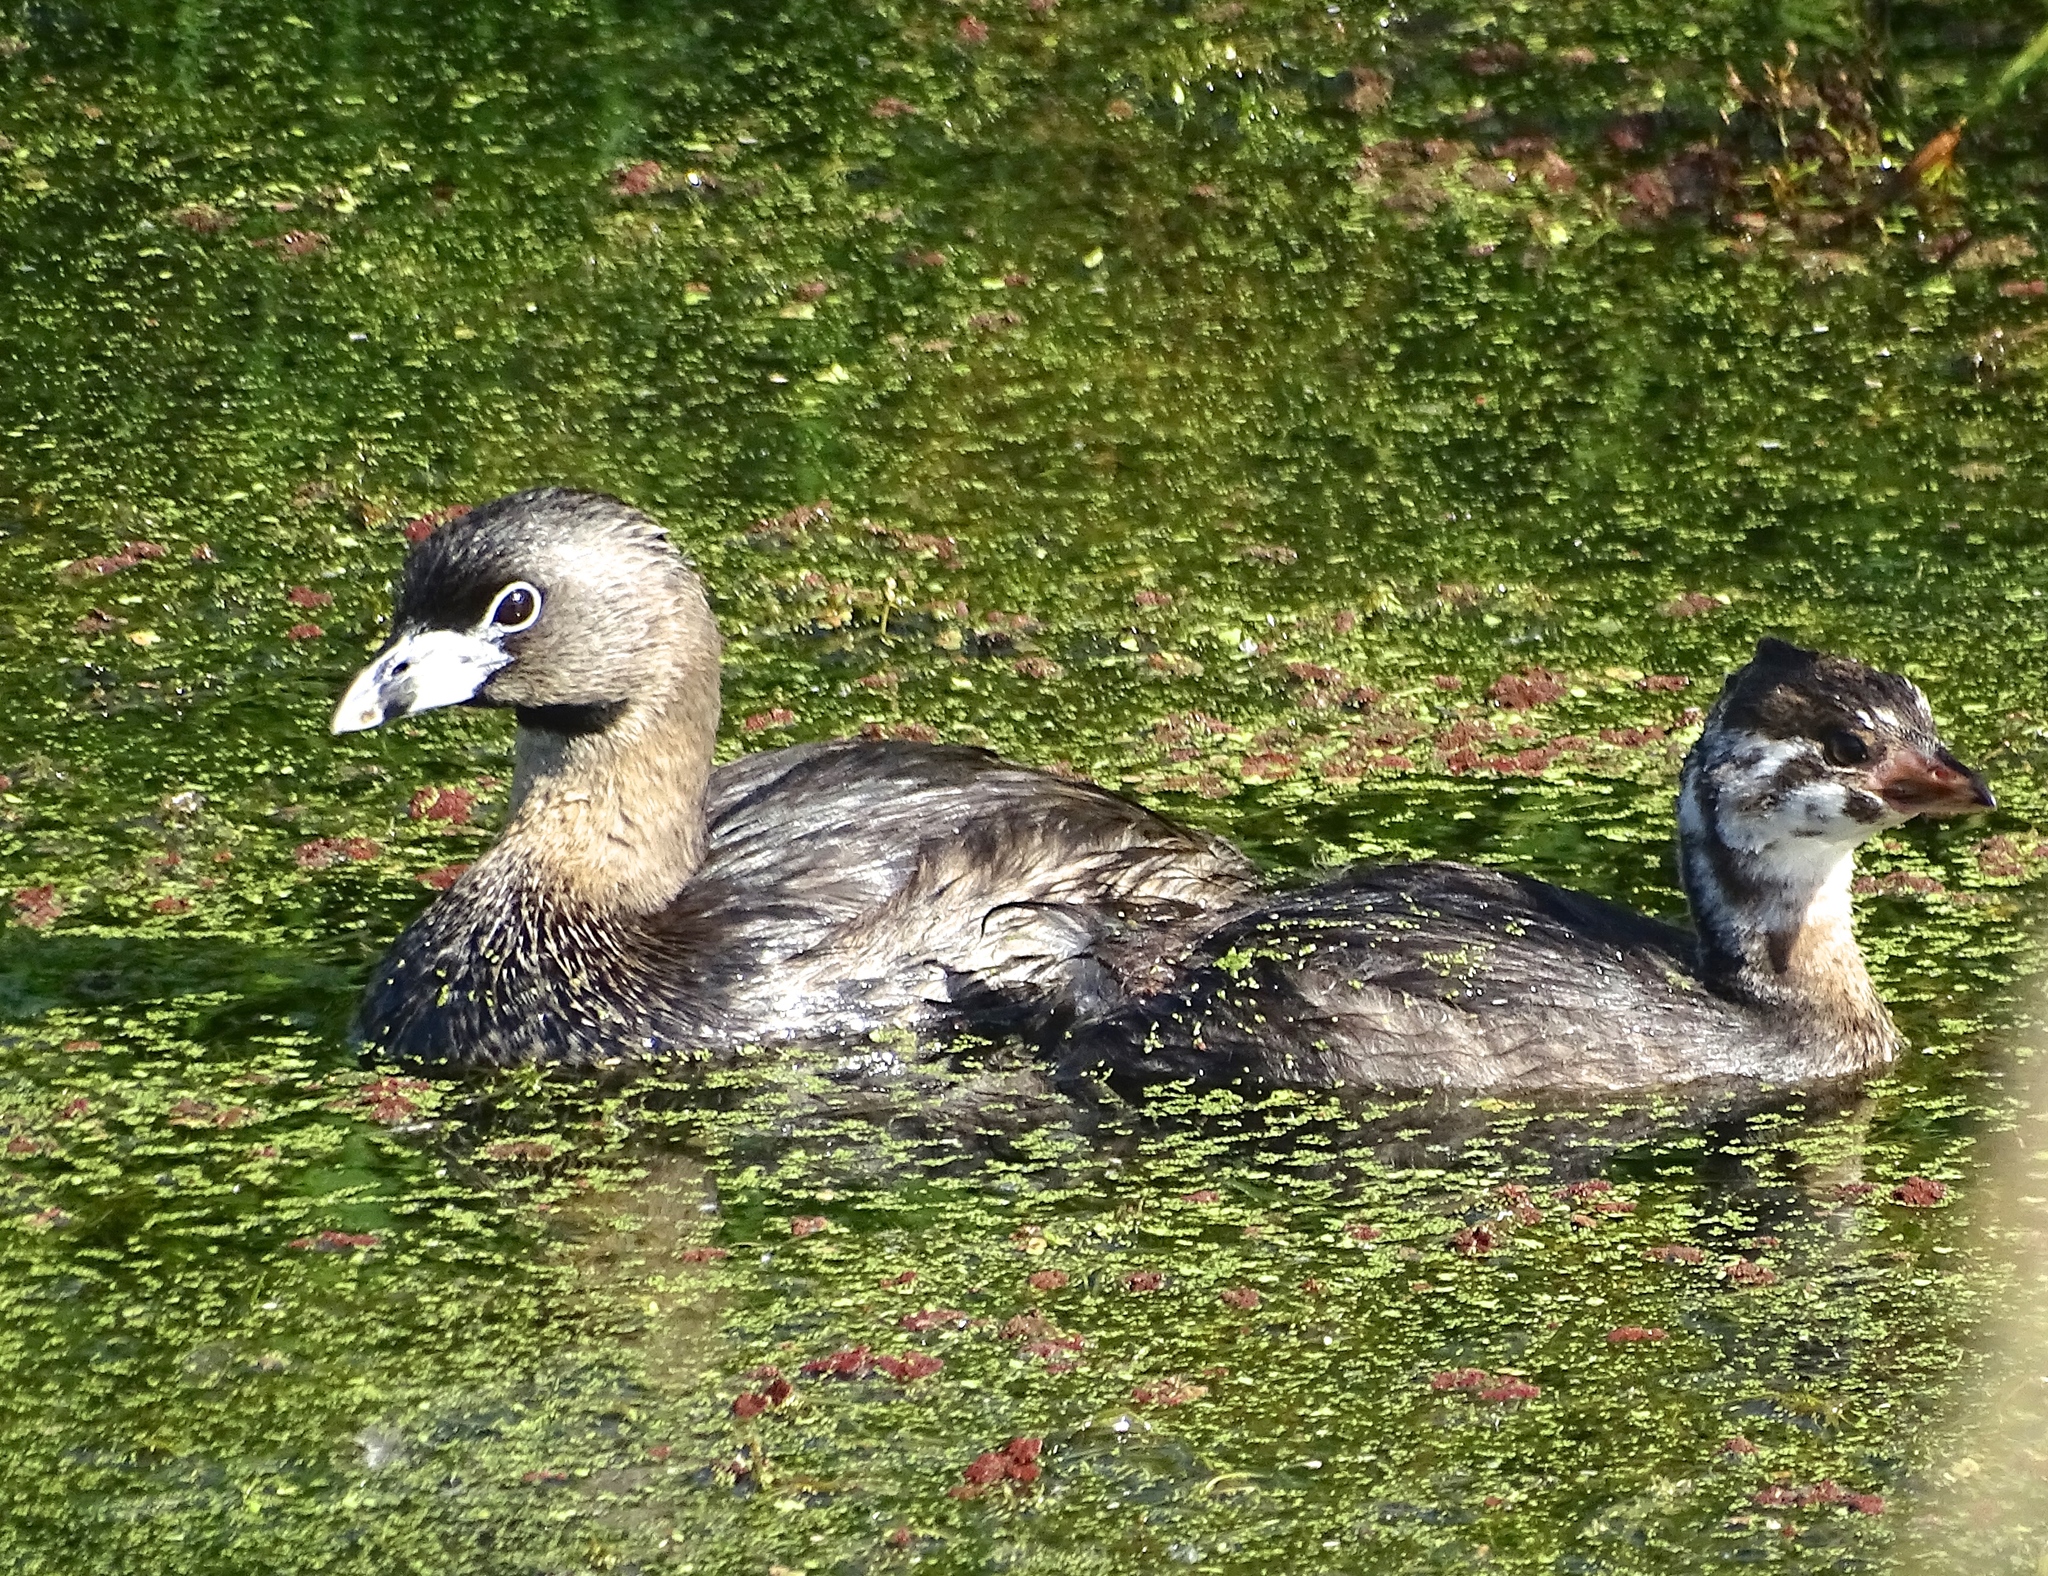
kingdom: Animalia
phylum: Chordata
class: Aves
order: Podicipediformes
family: Podicipedidae
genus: Podilymbus
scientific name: Podilymbus podiceps
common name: Pied-billed grebe
